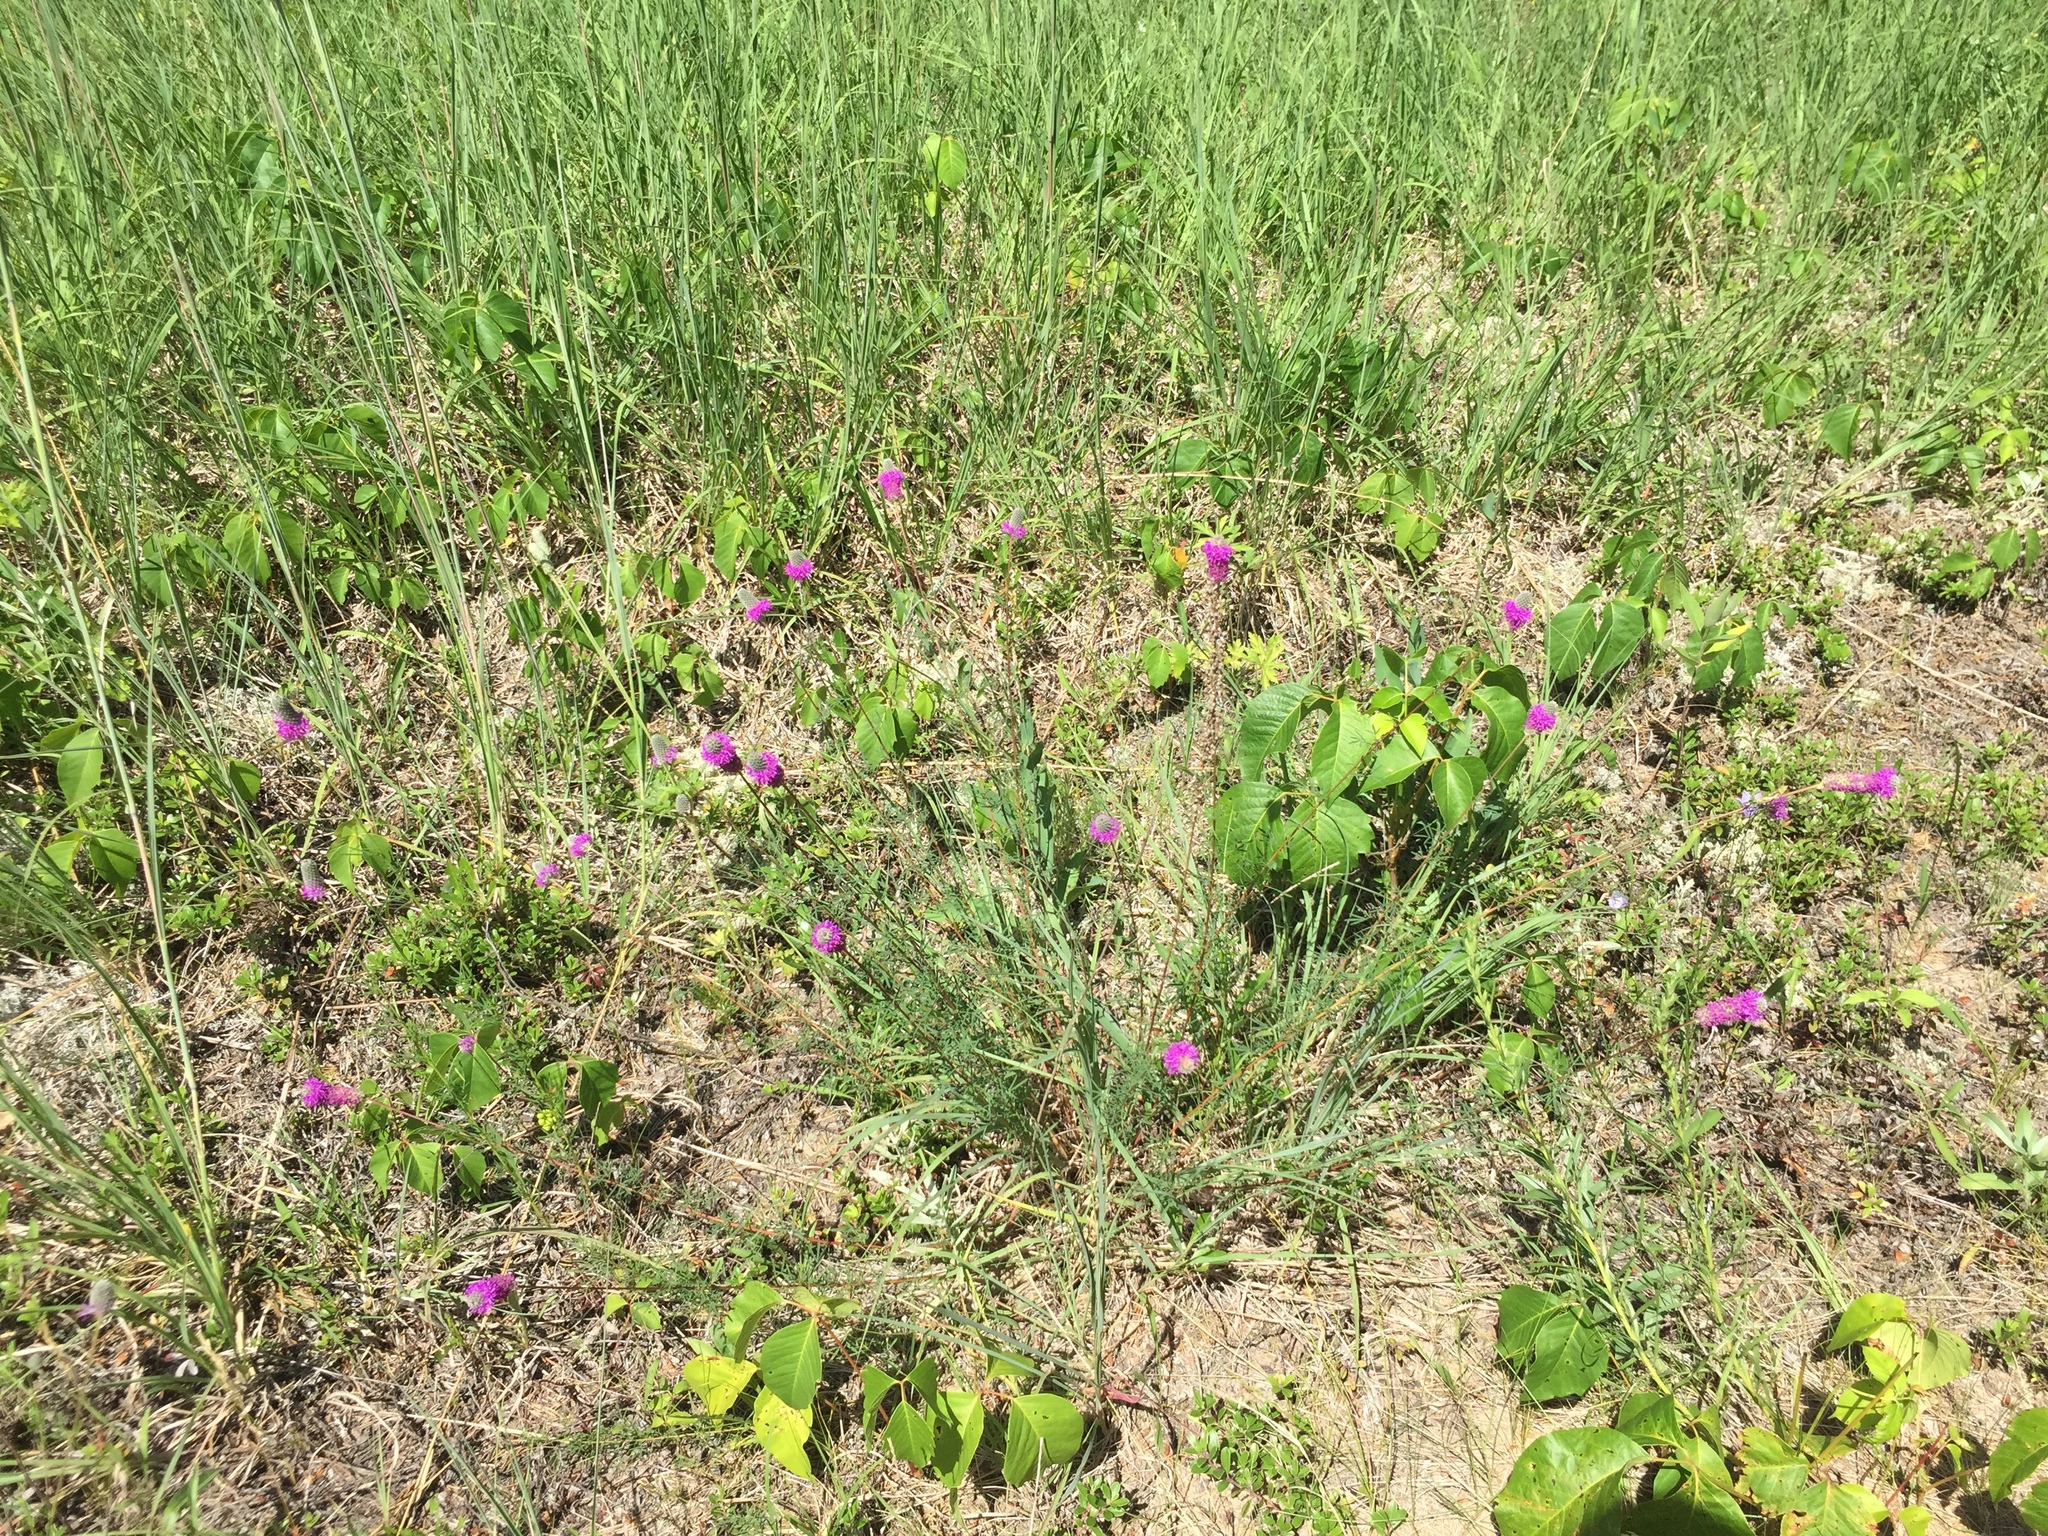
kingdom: Plantae
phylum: Tracheophyta
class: Magnoliopsida
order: Fabales
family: Fabaceae
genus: Dalea
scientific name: Dalea purpurea
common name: Purple prairie-clover
